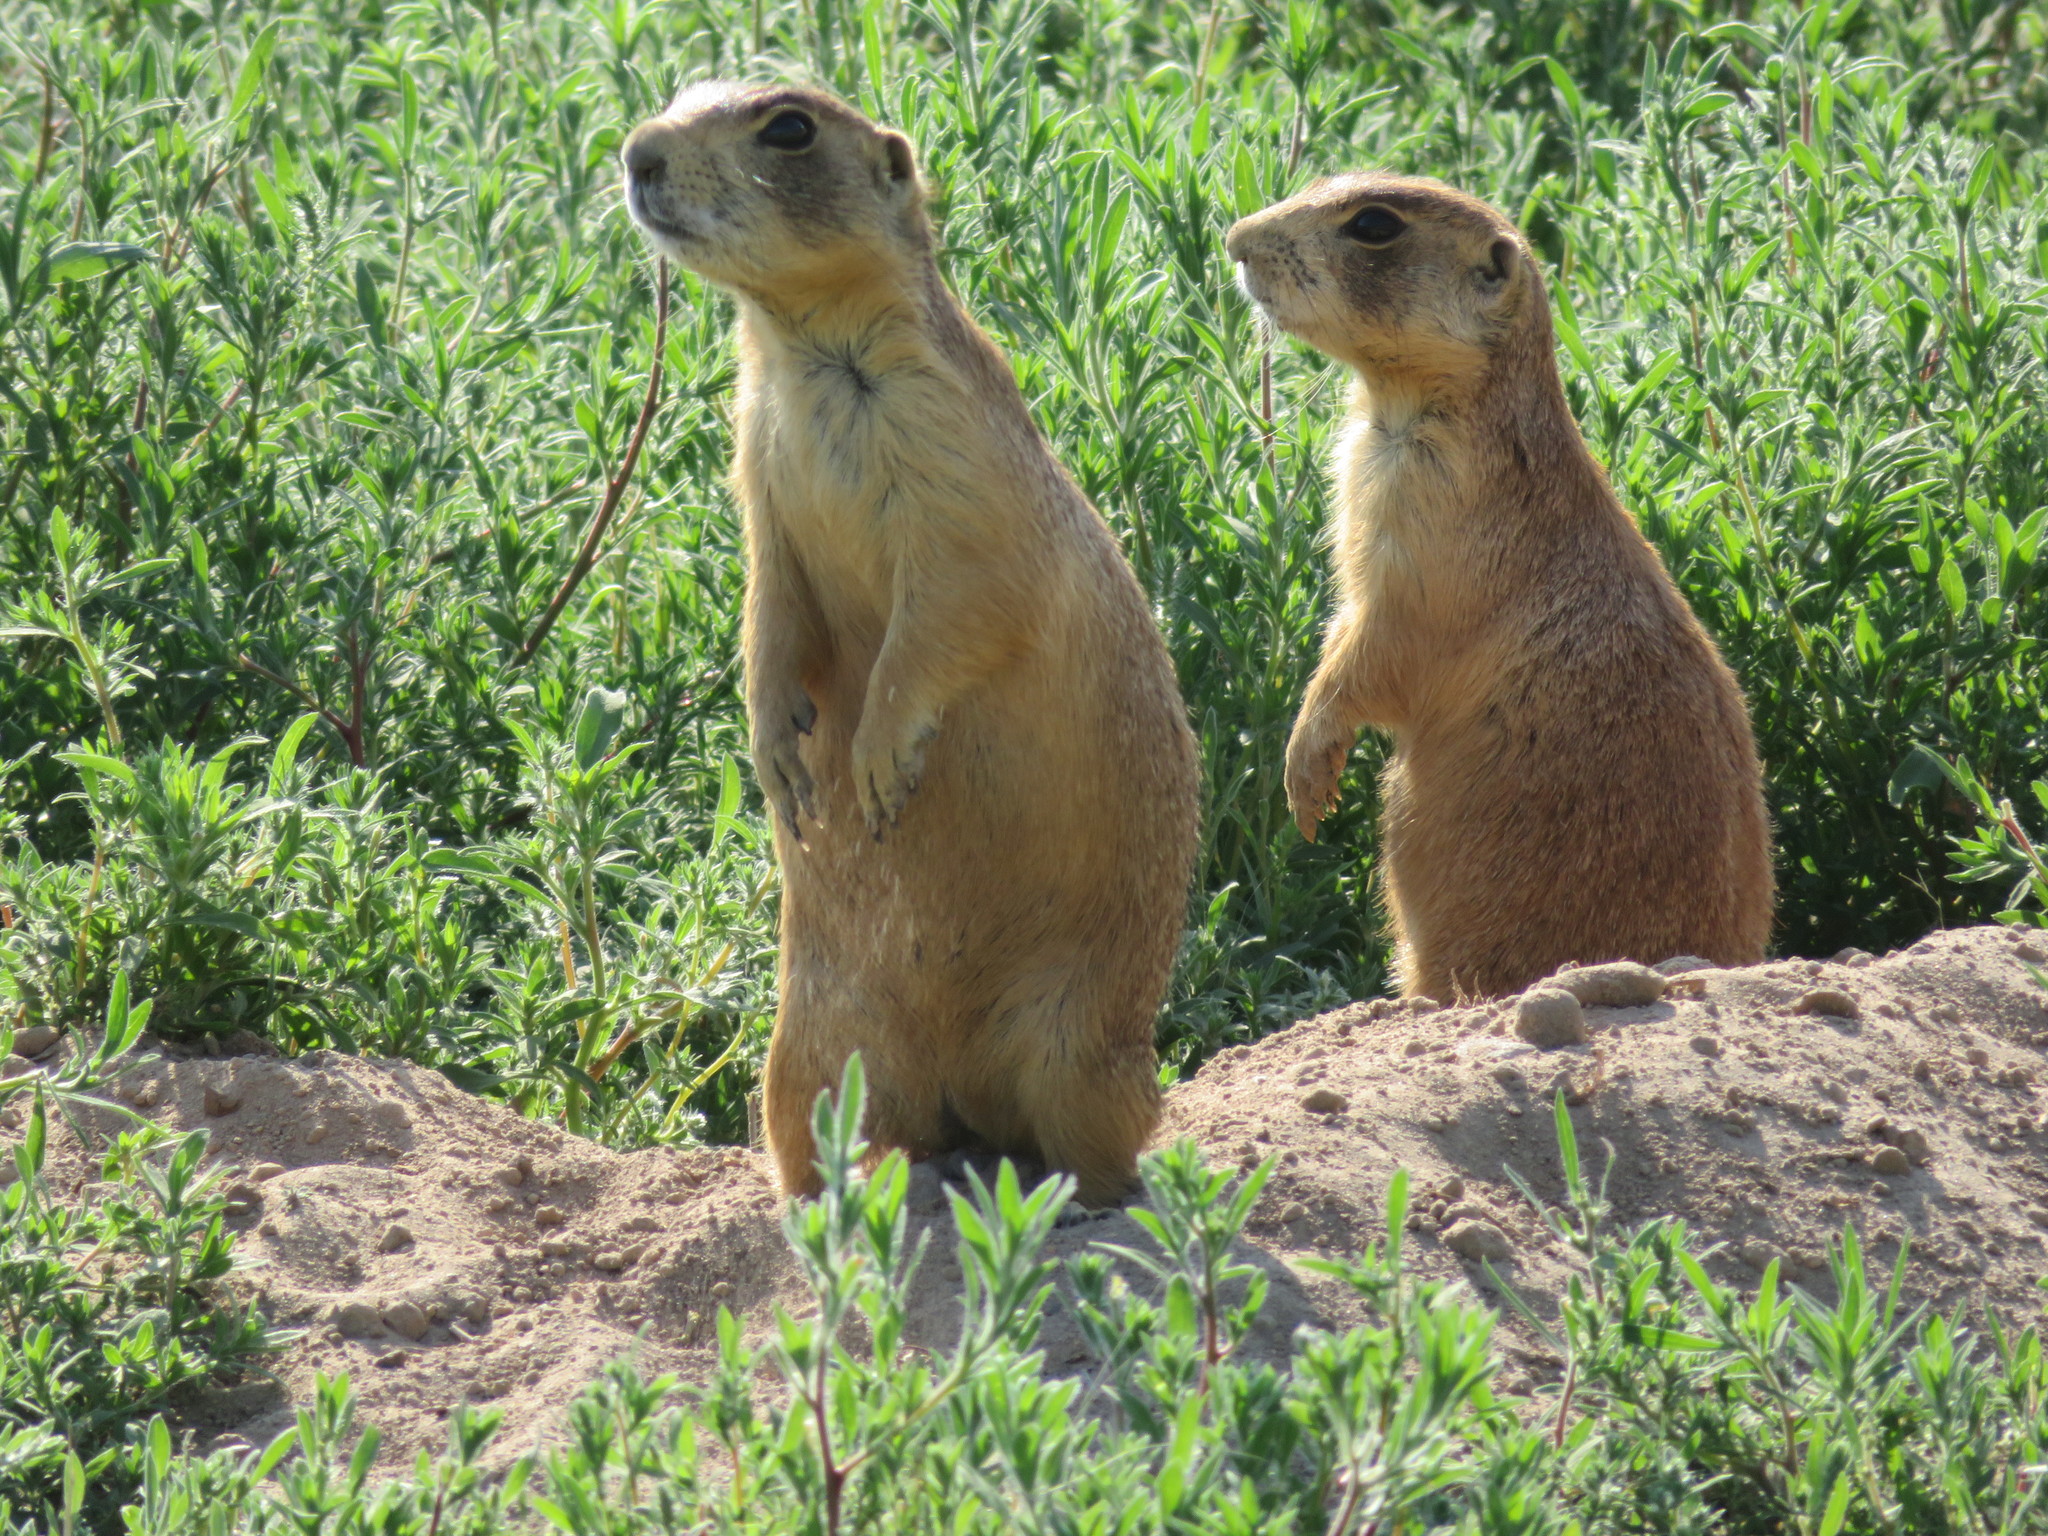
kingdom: Animalia
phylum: Chordata
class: Mammalia
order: Rodentia
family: Sciuridae
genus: Cynomys
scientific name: Cynomys parvidens
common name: Utah prairie dog
